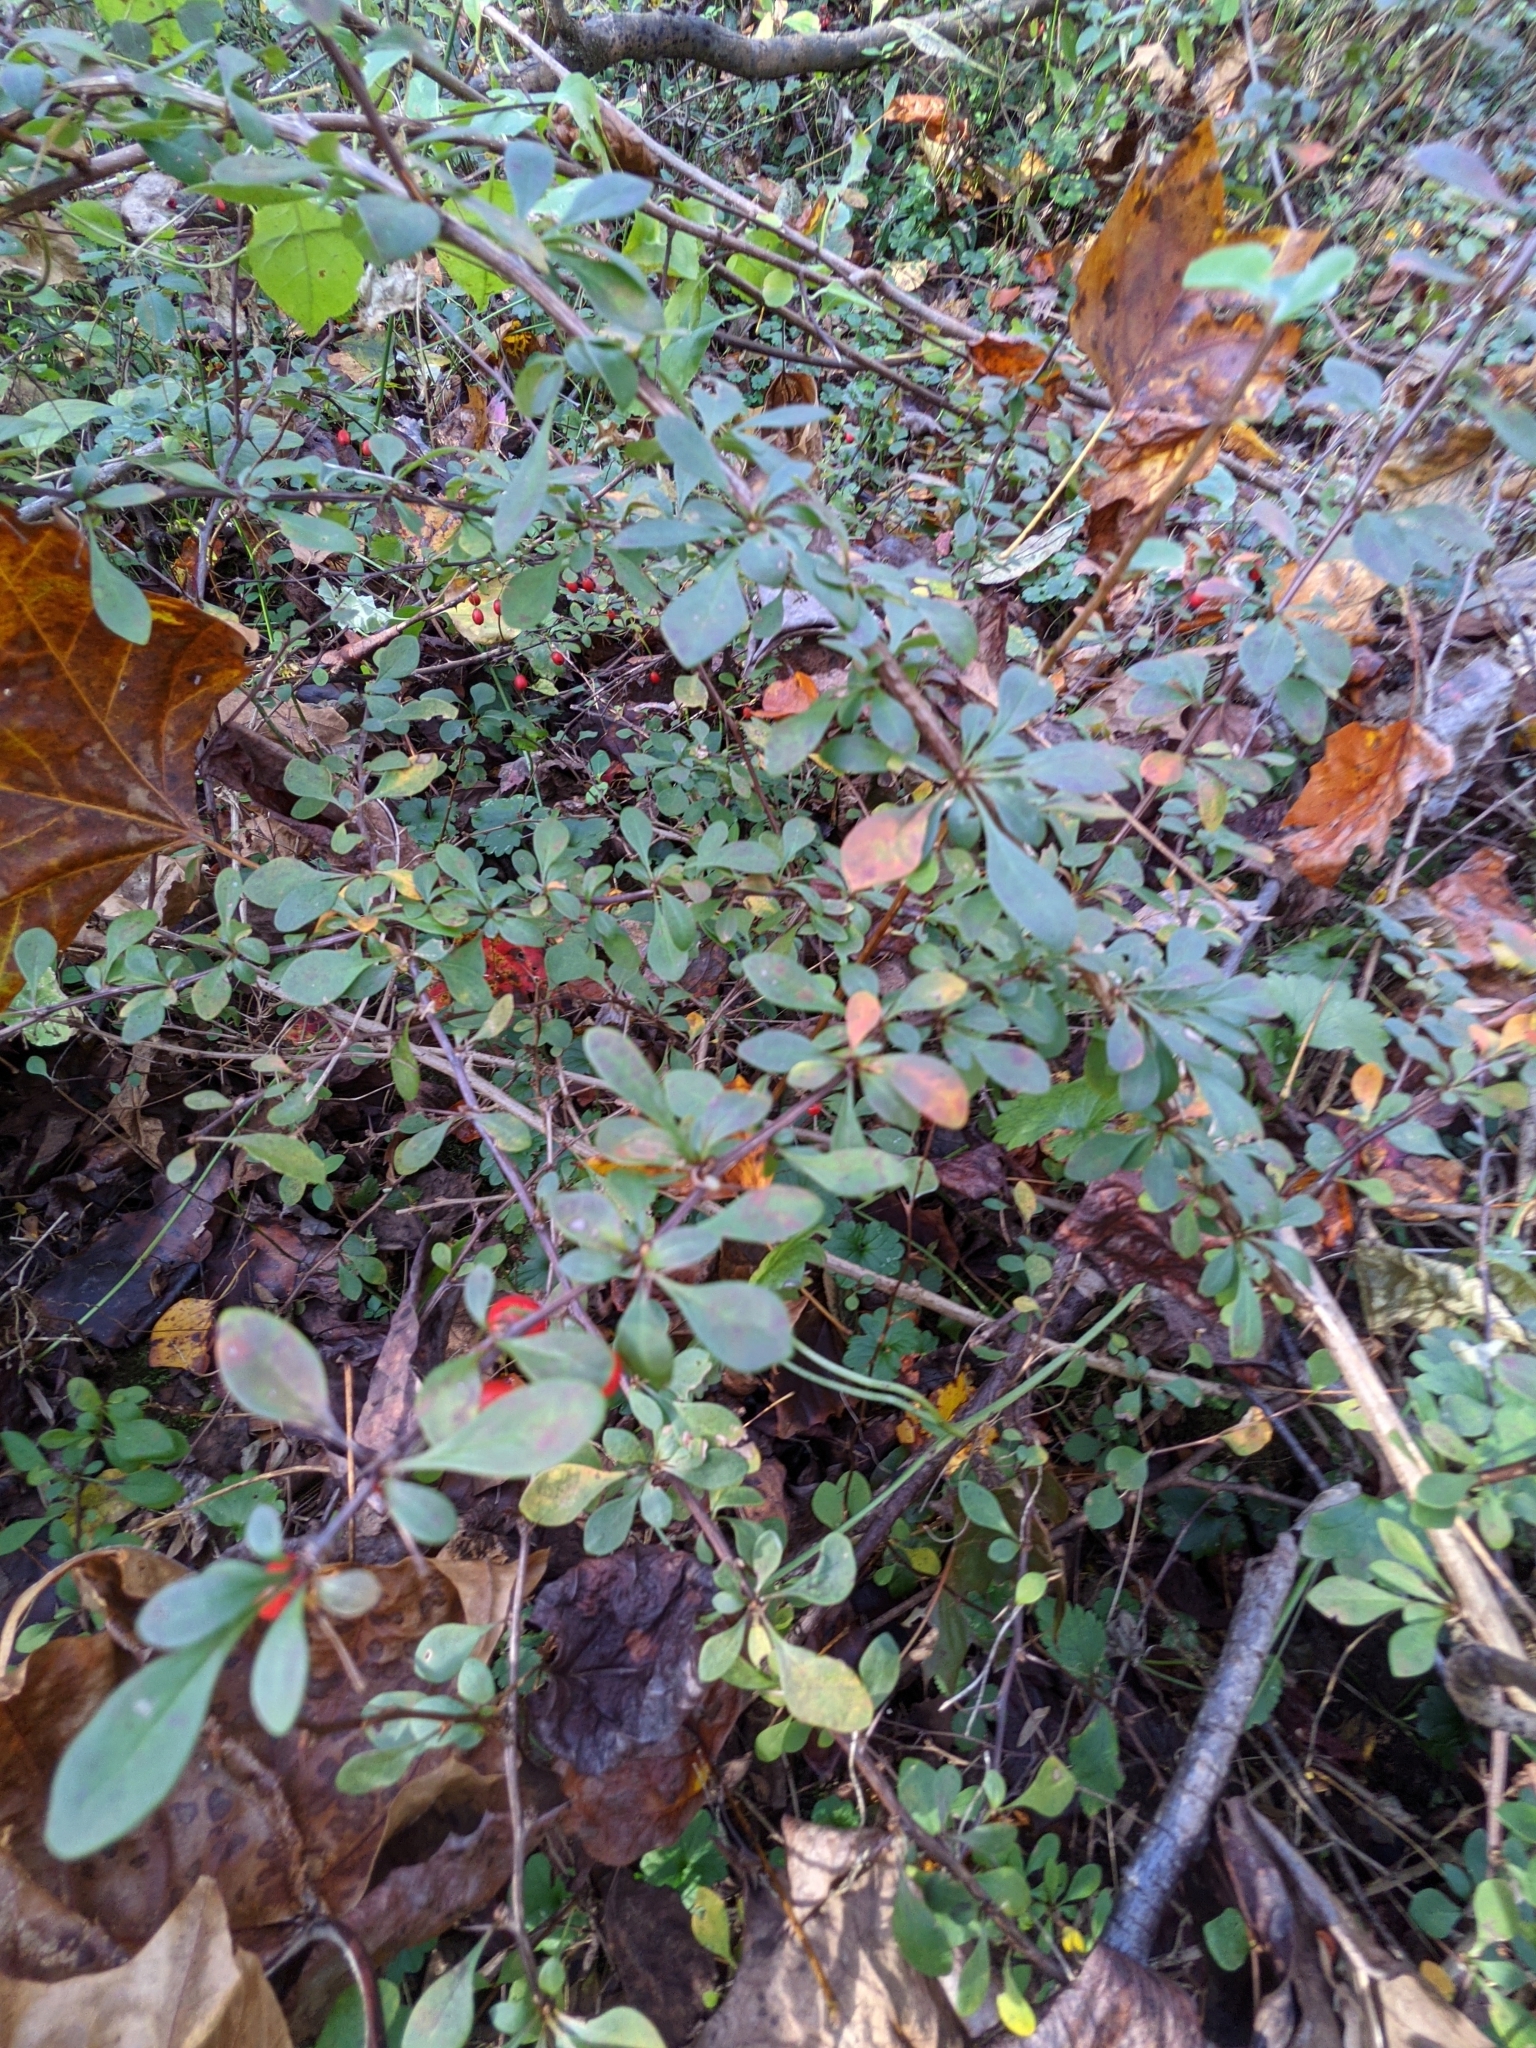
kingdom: Plantae
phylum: Tracheophyta
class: Magnoliopsida
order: Ranunculales
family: Berberidaceae
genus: Berberis
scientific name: Berberis thunbergii
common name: Japanese barberry
